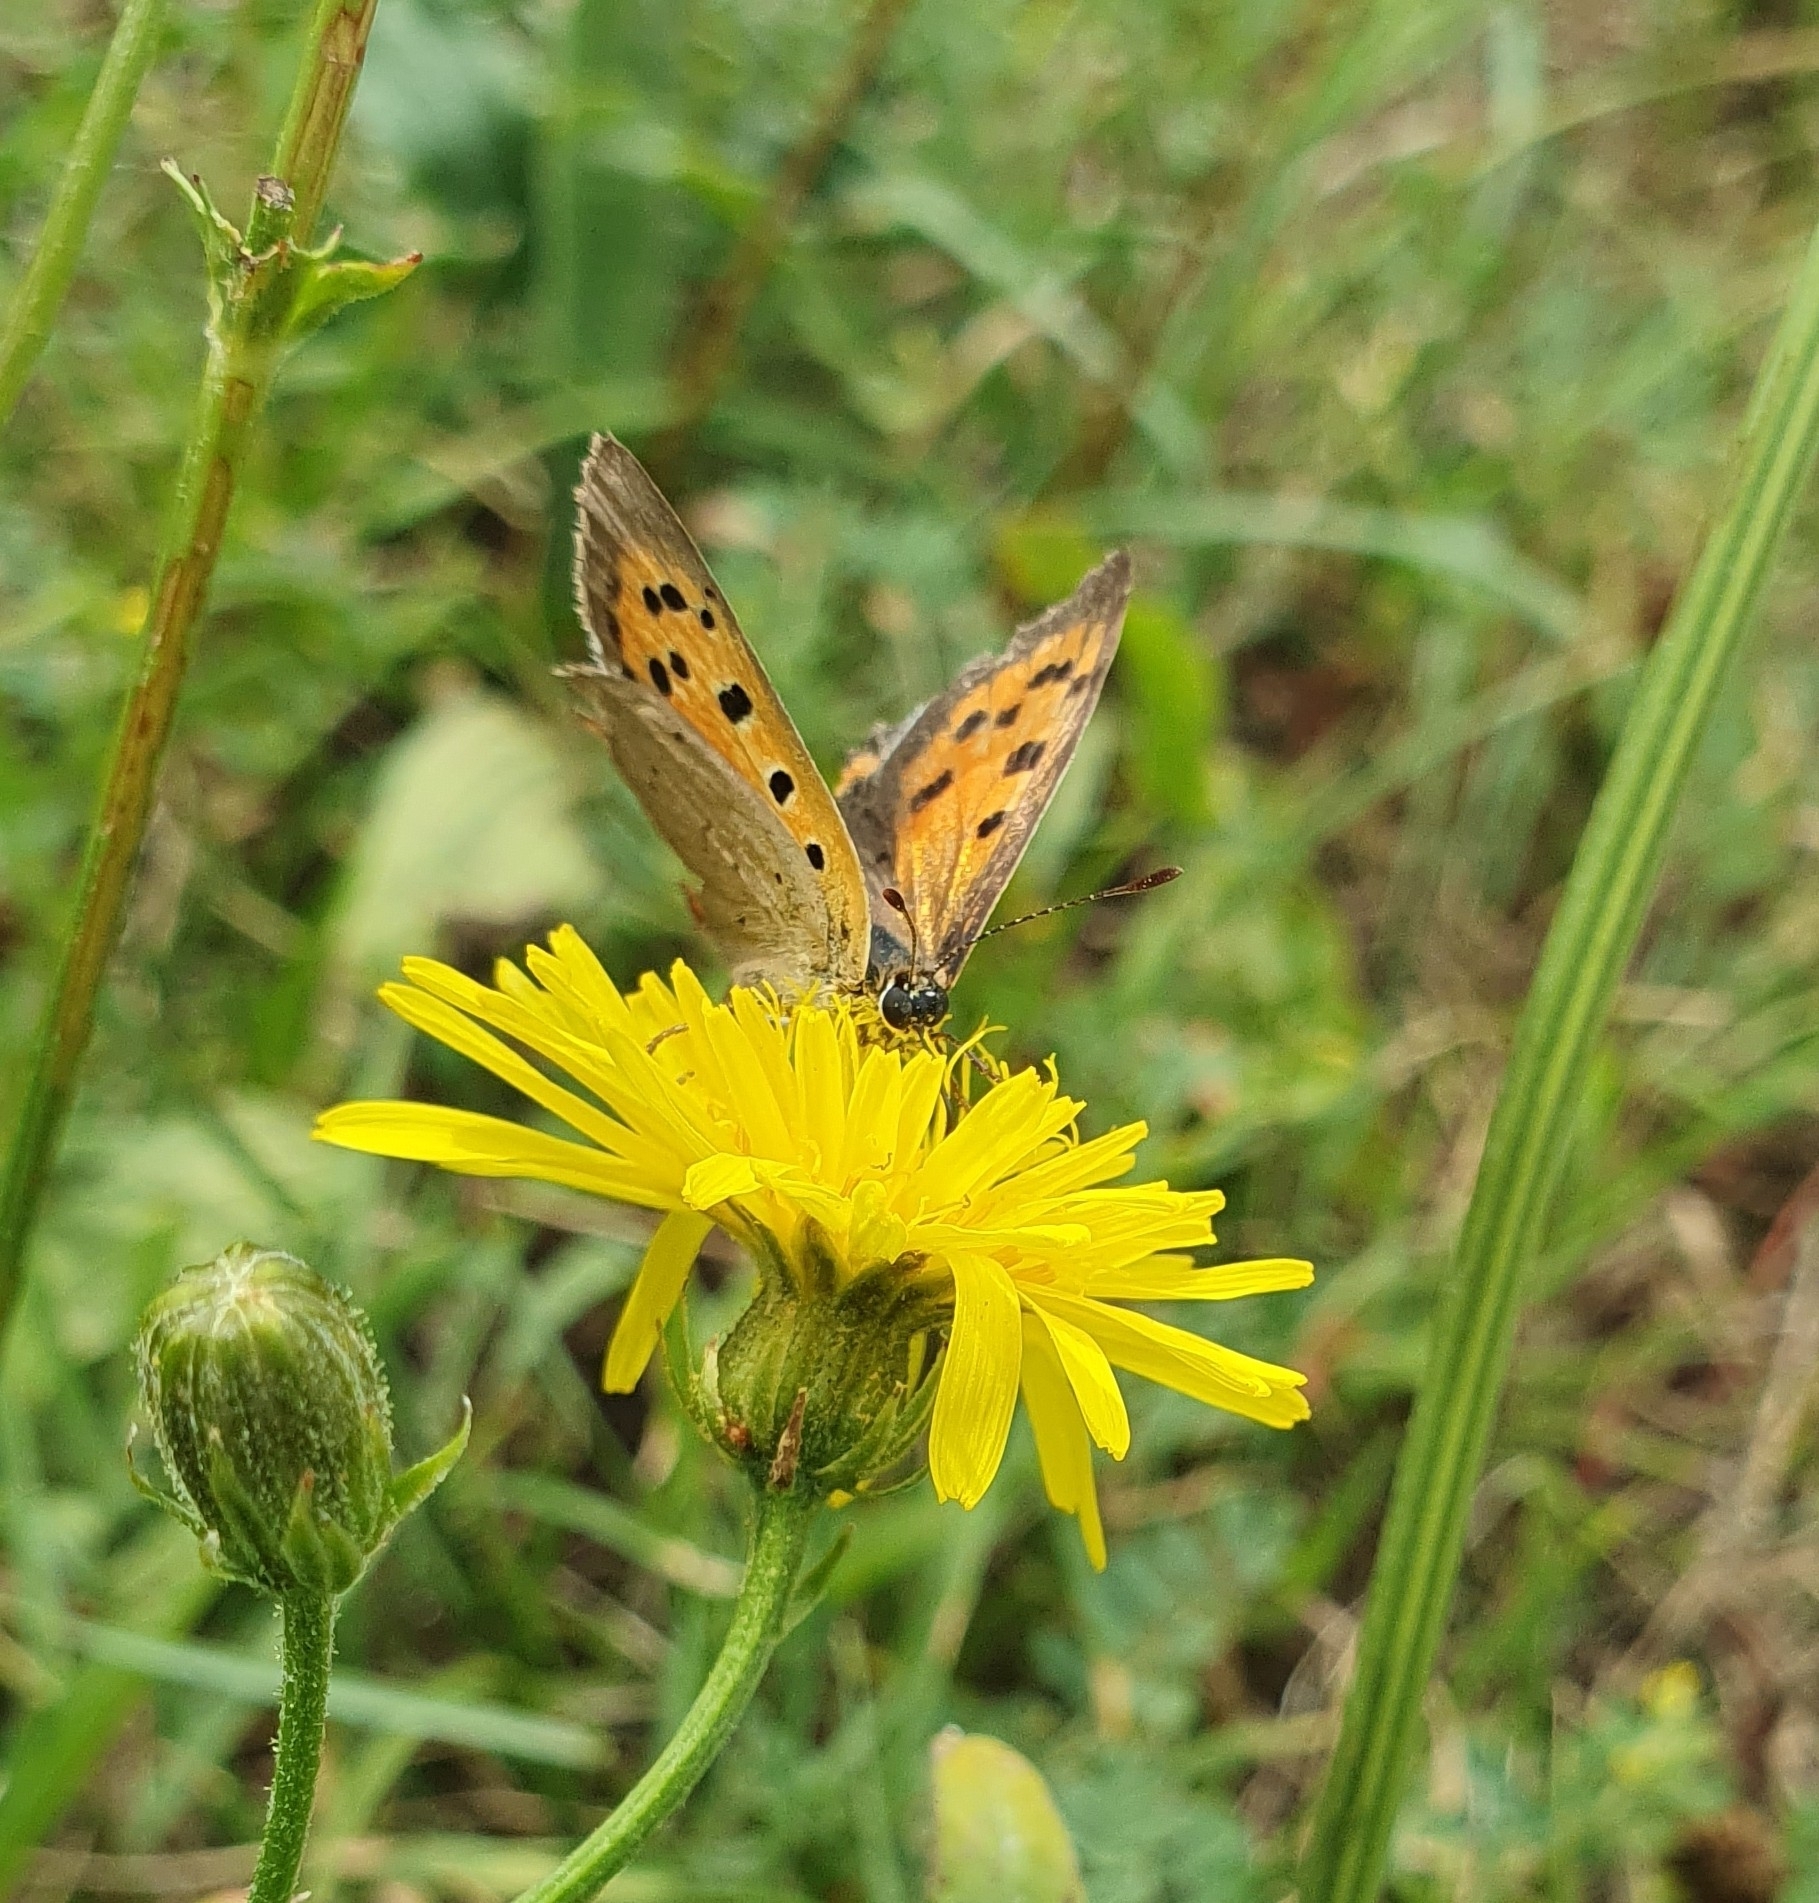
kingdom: Animalia
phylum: Arthropoda
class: Insecta
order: Lepidoptera
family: Lycaenidae
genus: Lycaena
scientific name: Lycaena phlaeas
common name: Small copper
